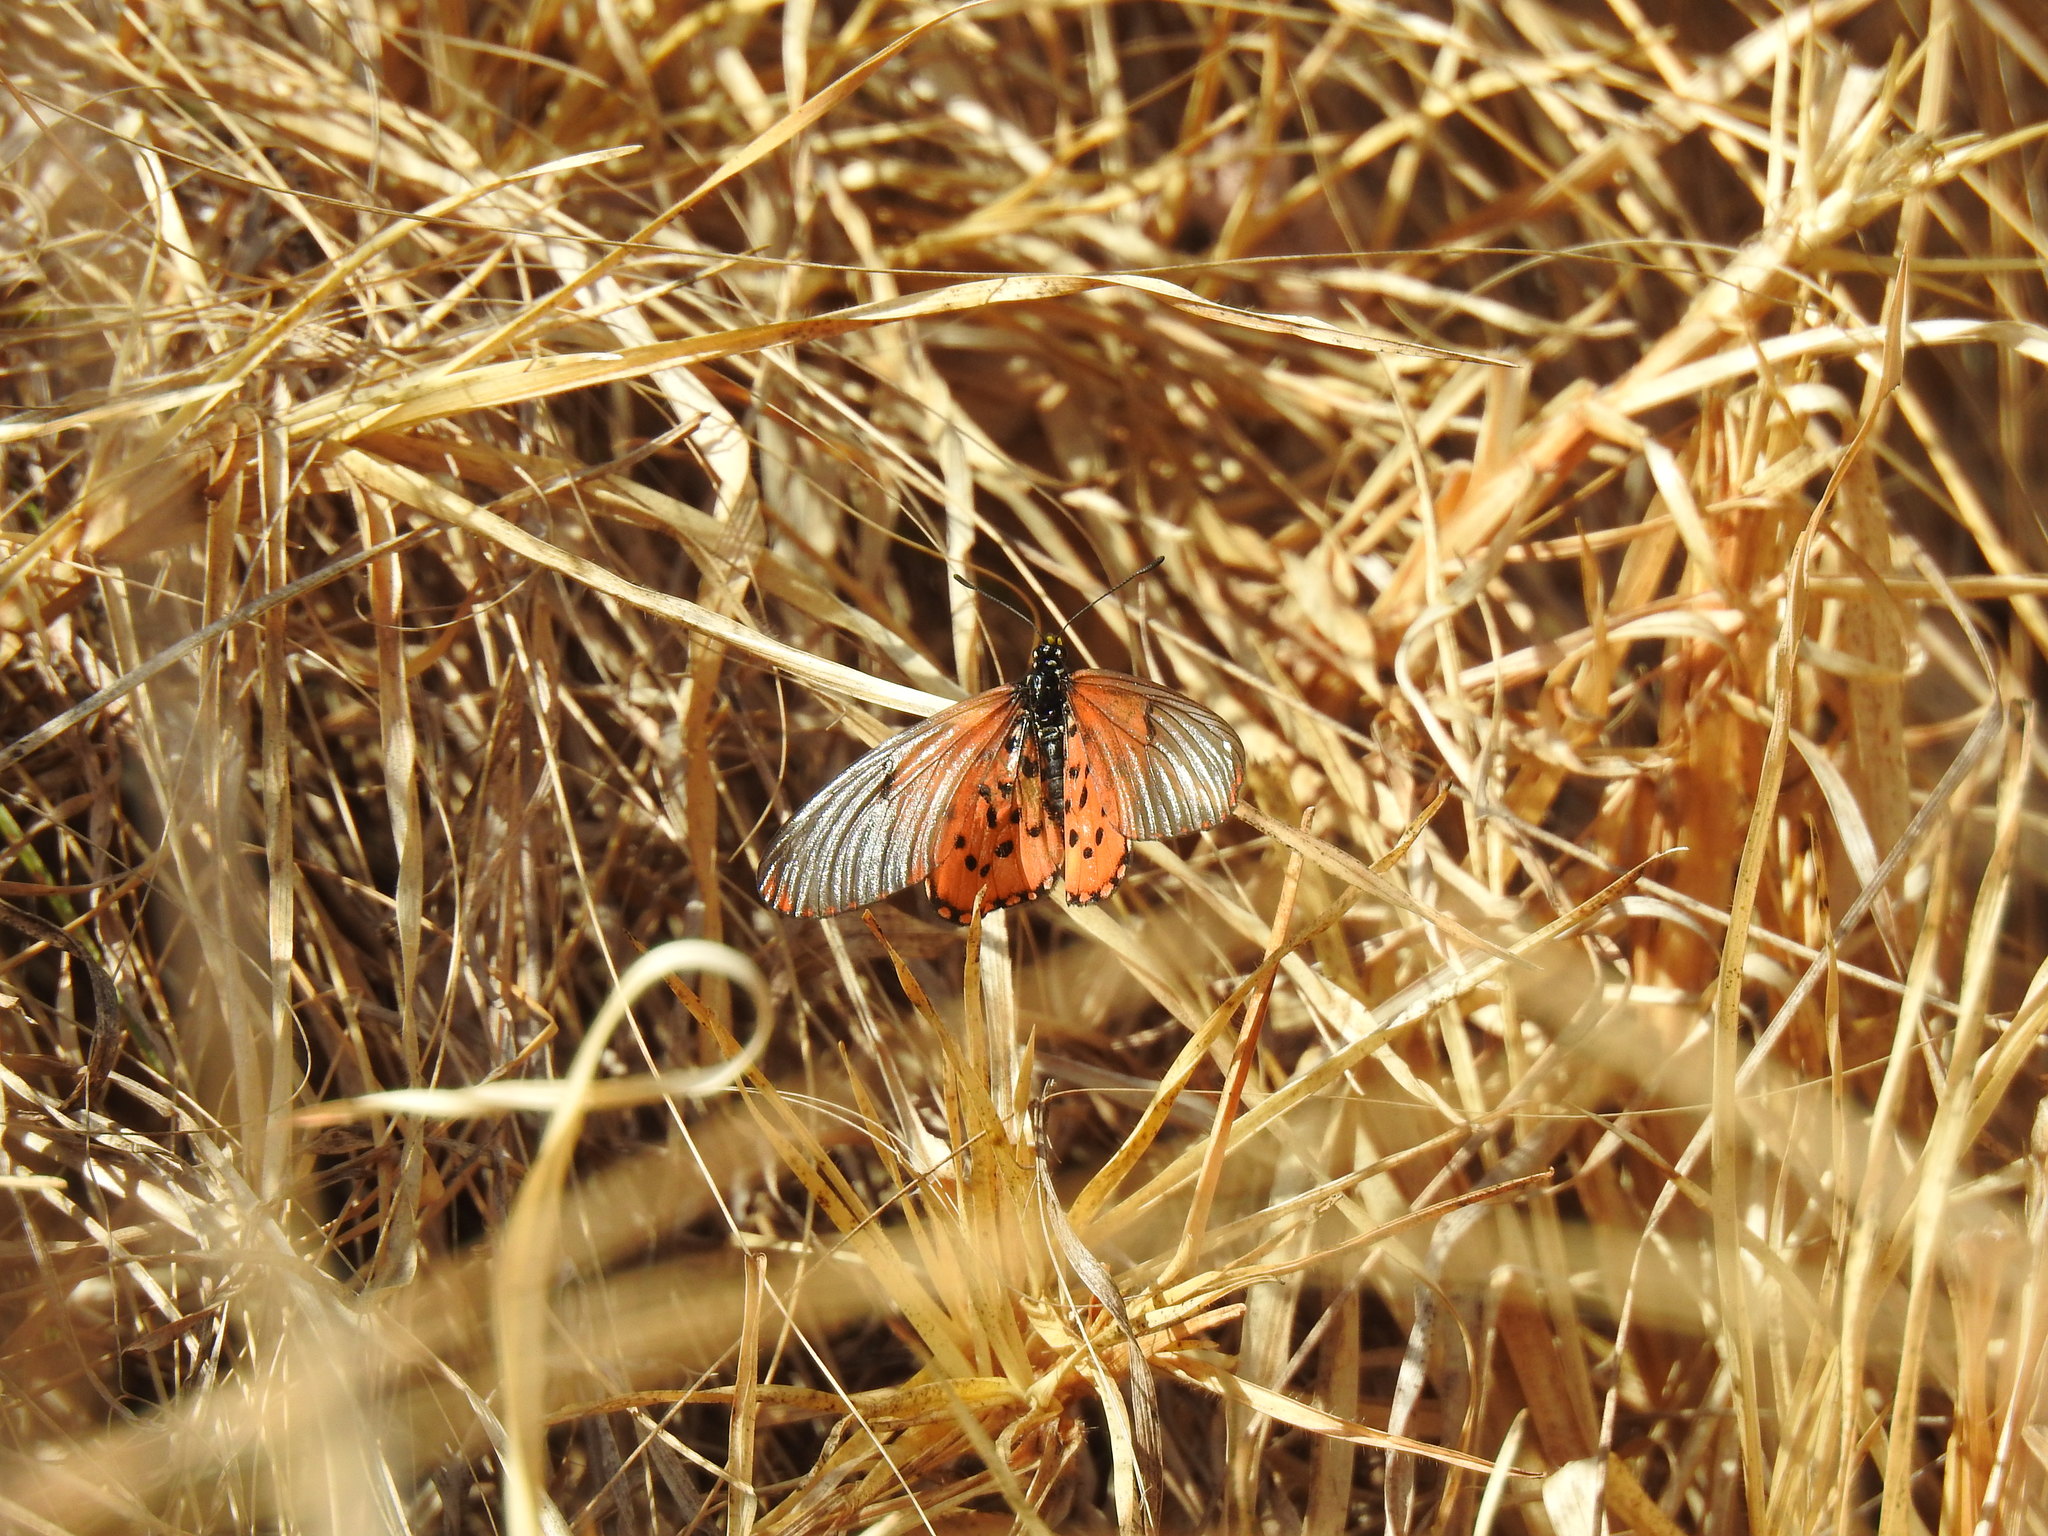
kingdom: Animalia
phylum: Arthropoda
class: Insecta
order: Lepidoptera
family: Nymphalidae
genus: Acraea
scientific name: Acraea horta
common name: Garden acraea
